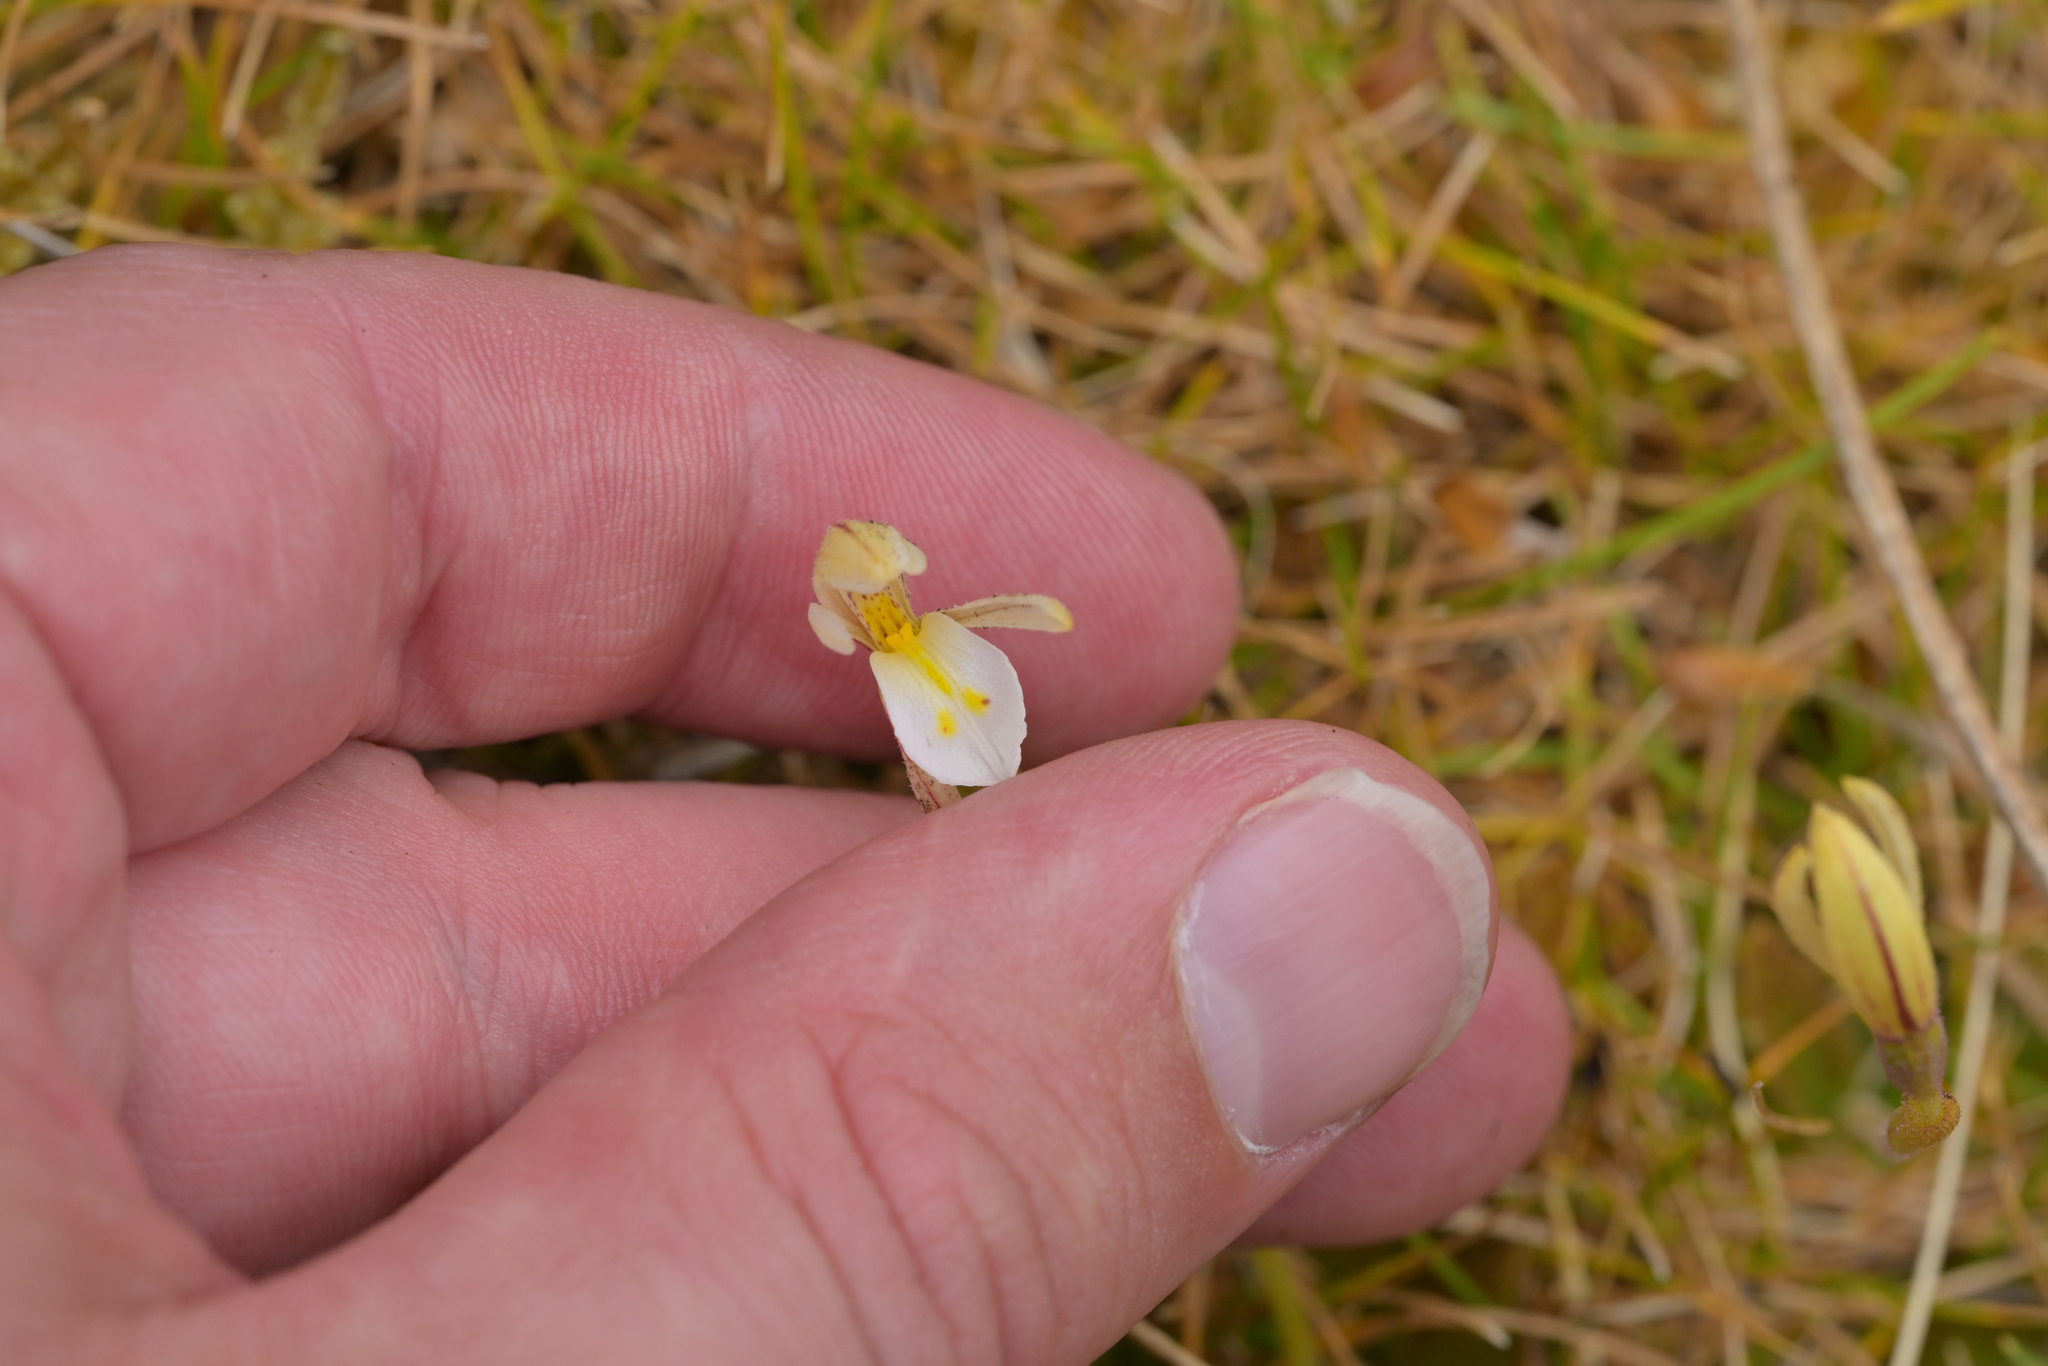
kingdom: Plantae
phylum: Tracheophyta
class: Liliopsida
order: Asparagales
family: Orchidaceae
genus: Aporostylis
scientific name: Aporostylis bifolia
